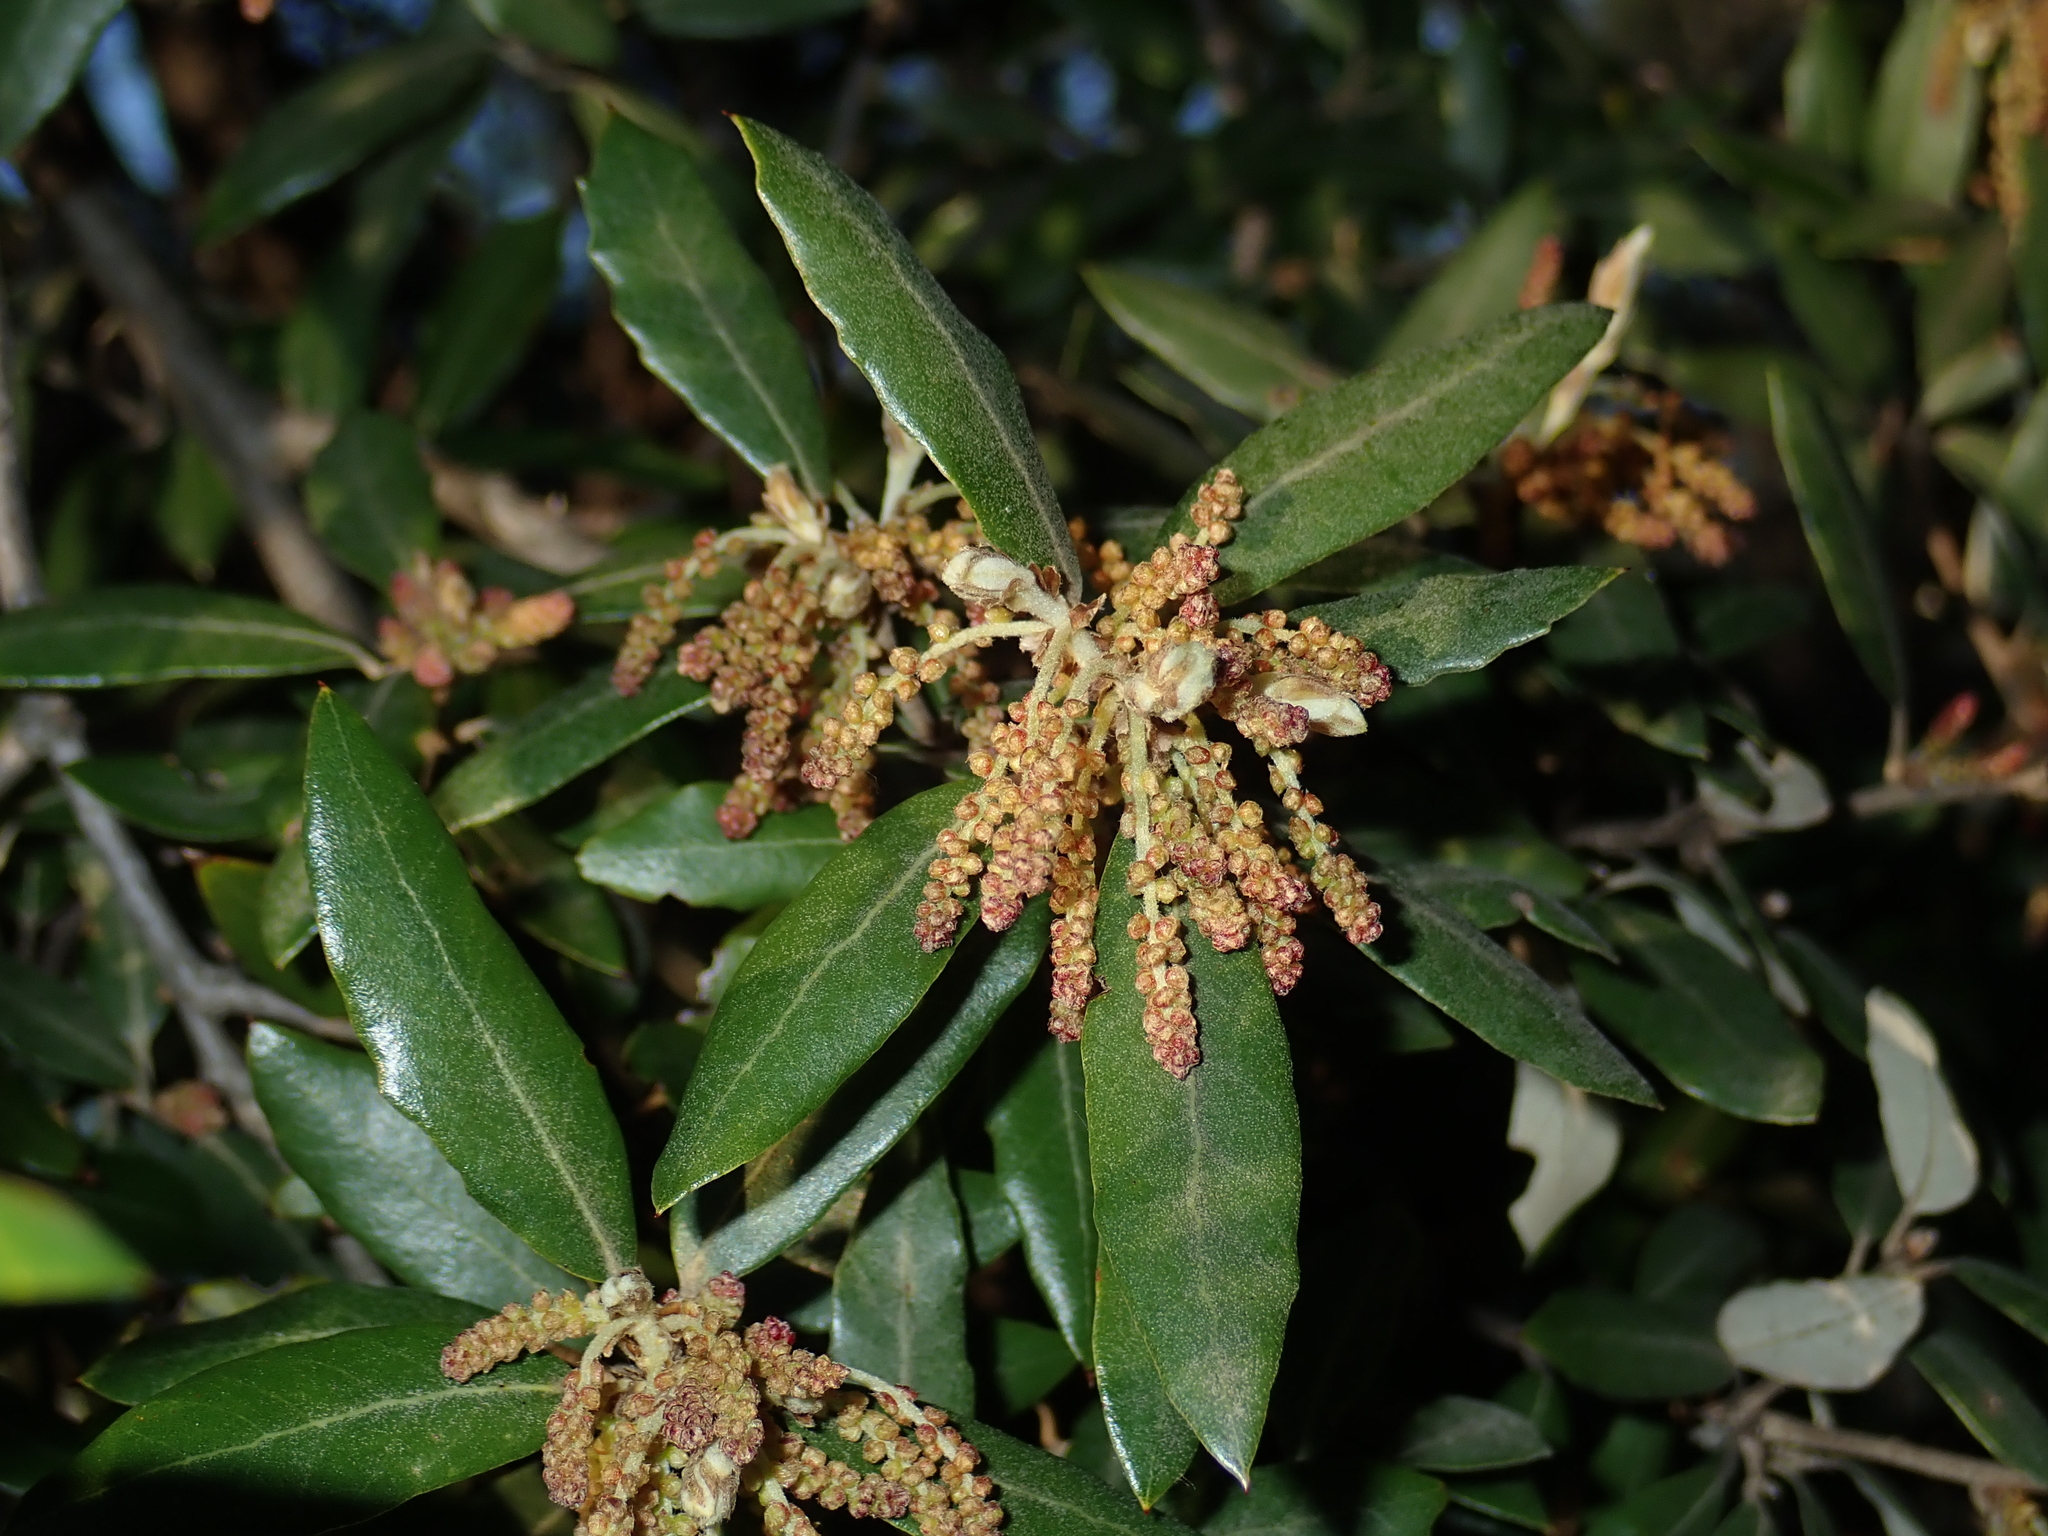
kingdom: Plantae
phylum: Tracheophyta
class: Magnoliopsida
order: Fagales
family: Fagaceae
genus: Quercus
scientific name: Quercus ilex
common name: Evergreen oak
